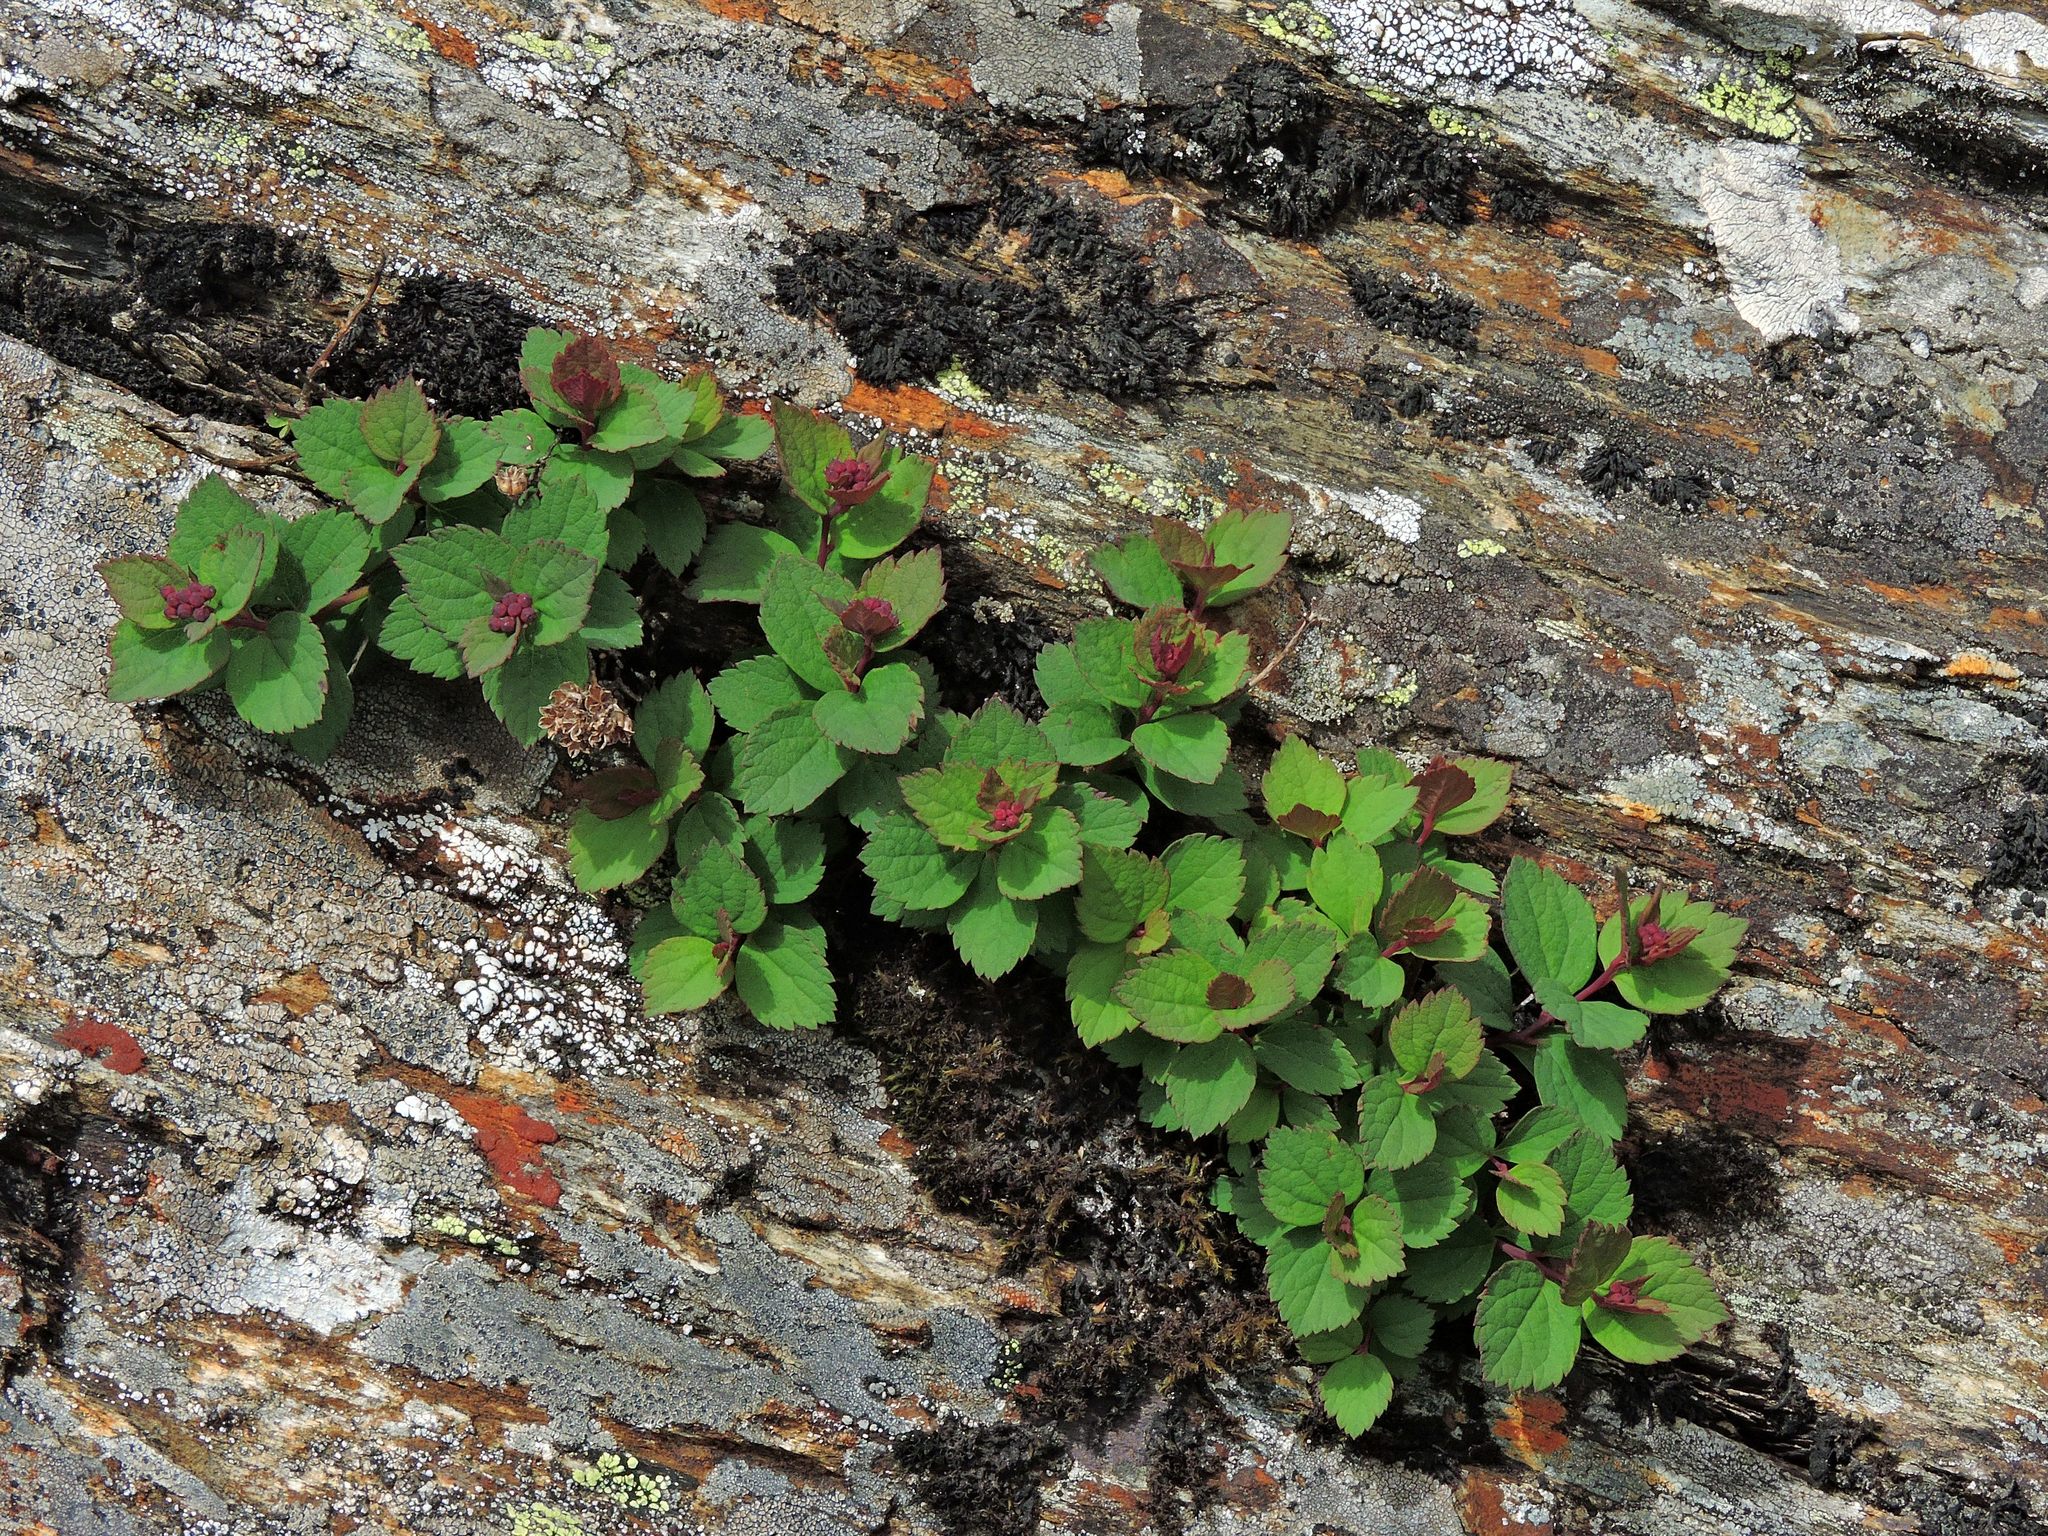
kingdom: Plantae
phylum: Tracheophyta
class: Magnoliopsida
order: Rosales
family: Rosaceae
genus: Spiraea
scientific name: Spiraea morrisonicola
